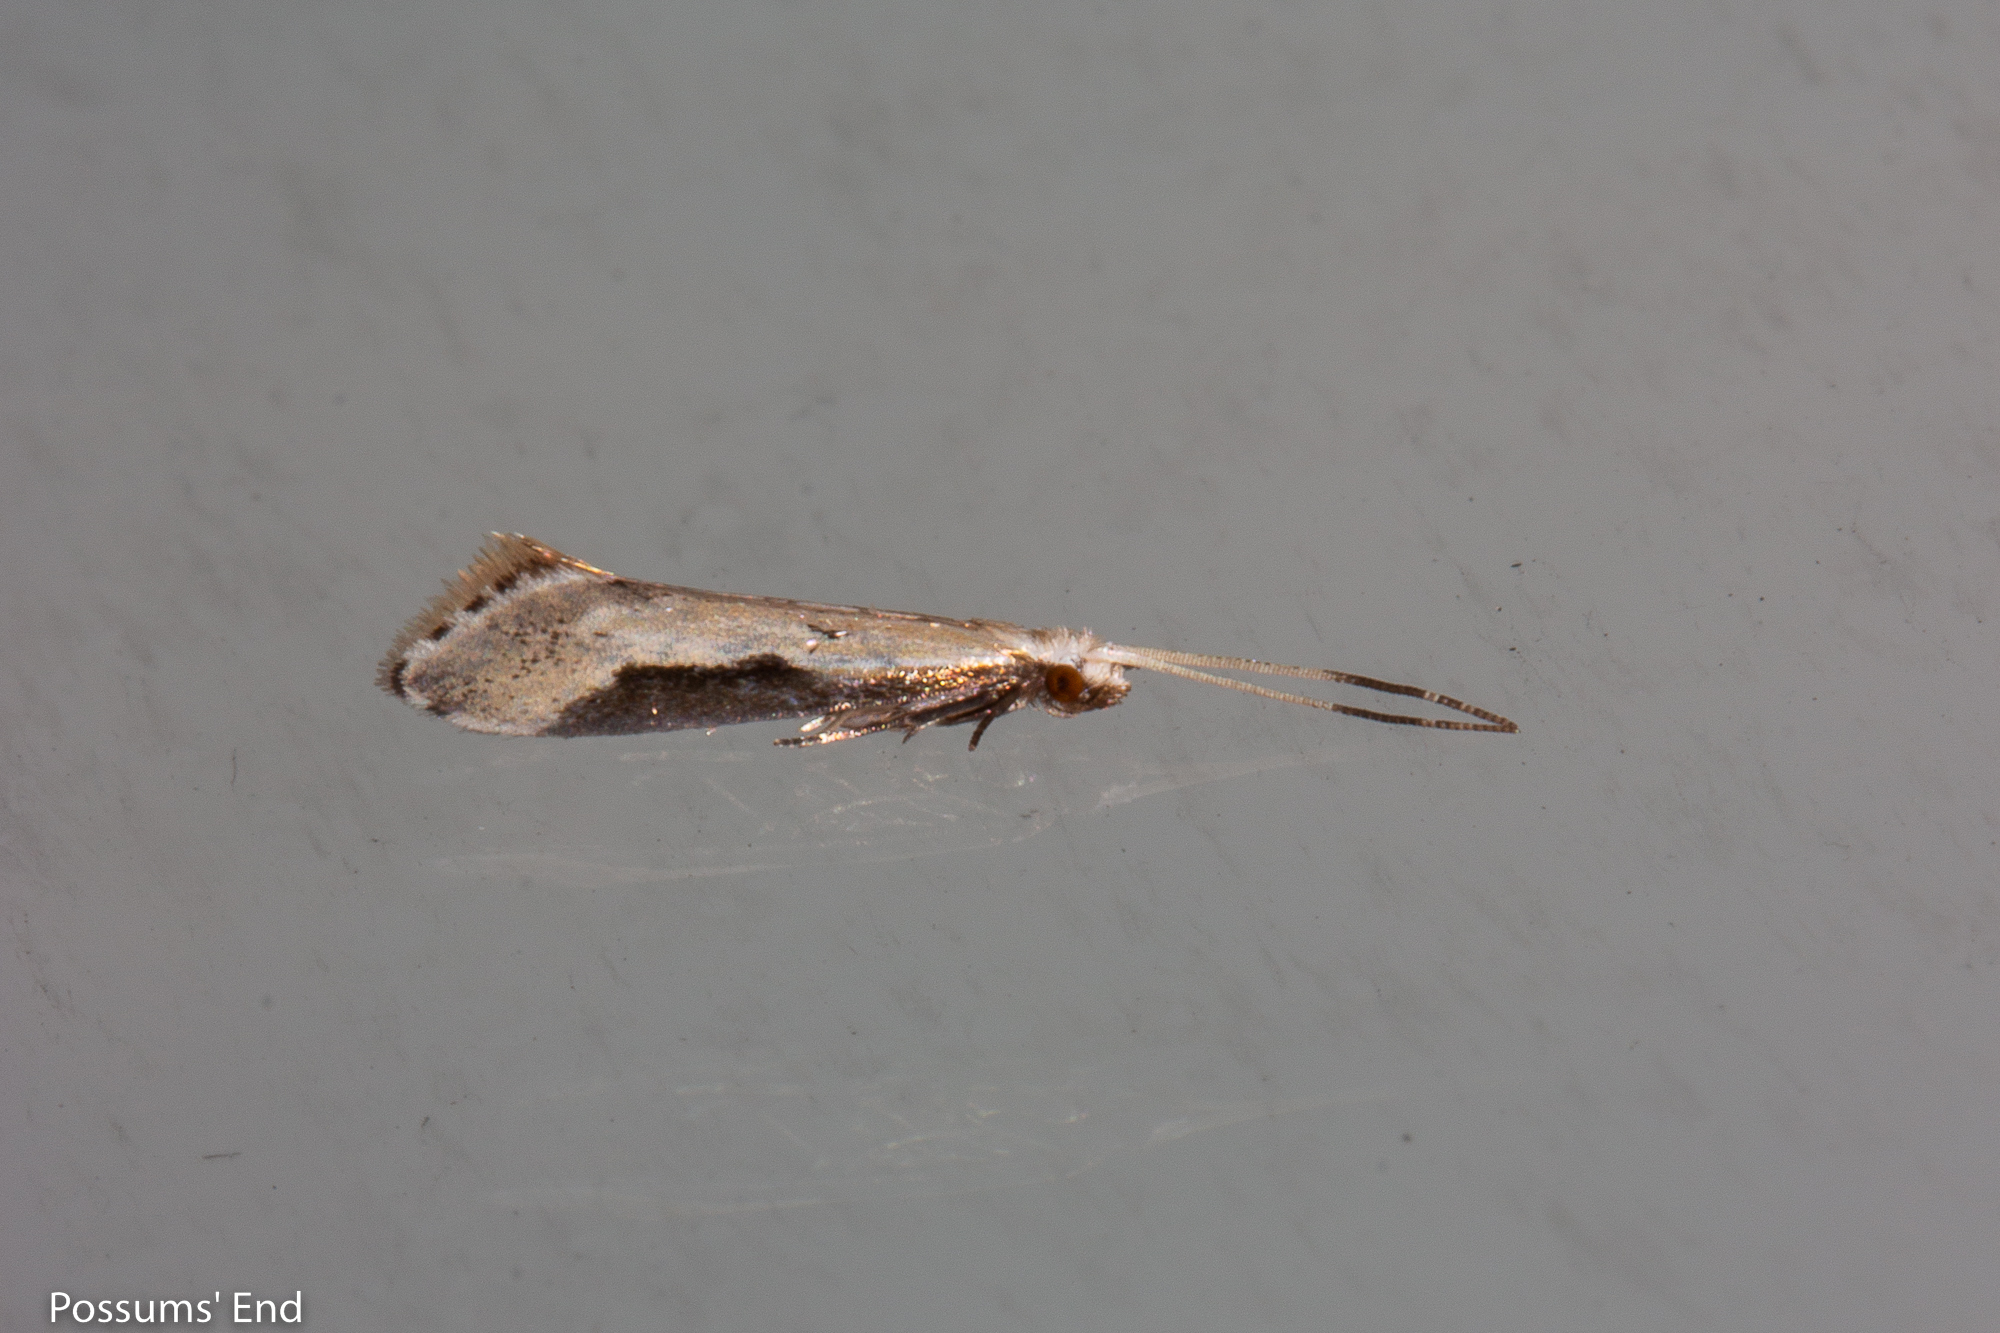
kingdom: Animalia
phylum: Arthropoda
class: Insecta
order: Lepidoptera
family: Tineidae
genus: Sagephora
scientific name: Sagephora phortegella
